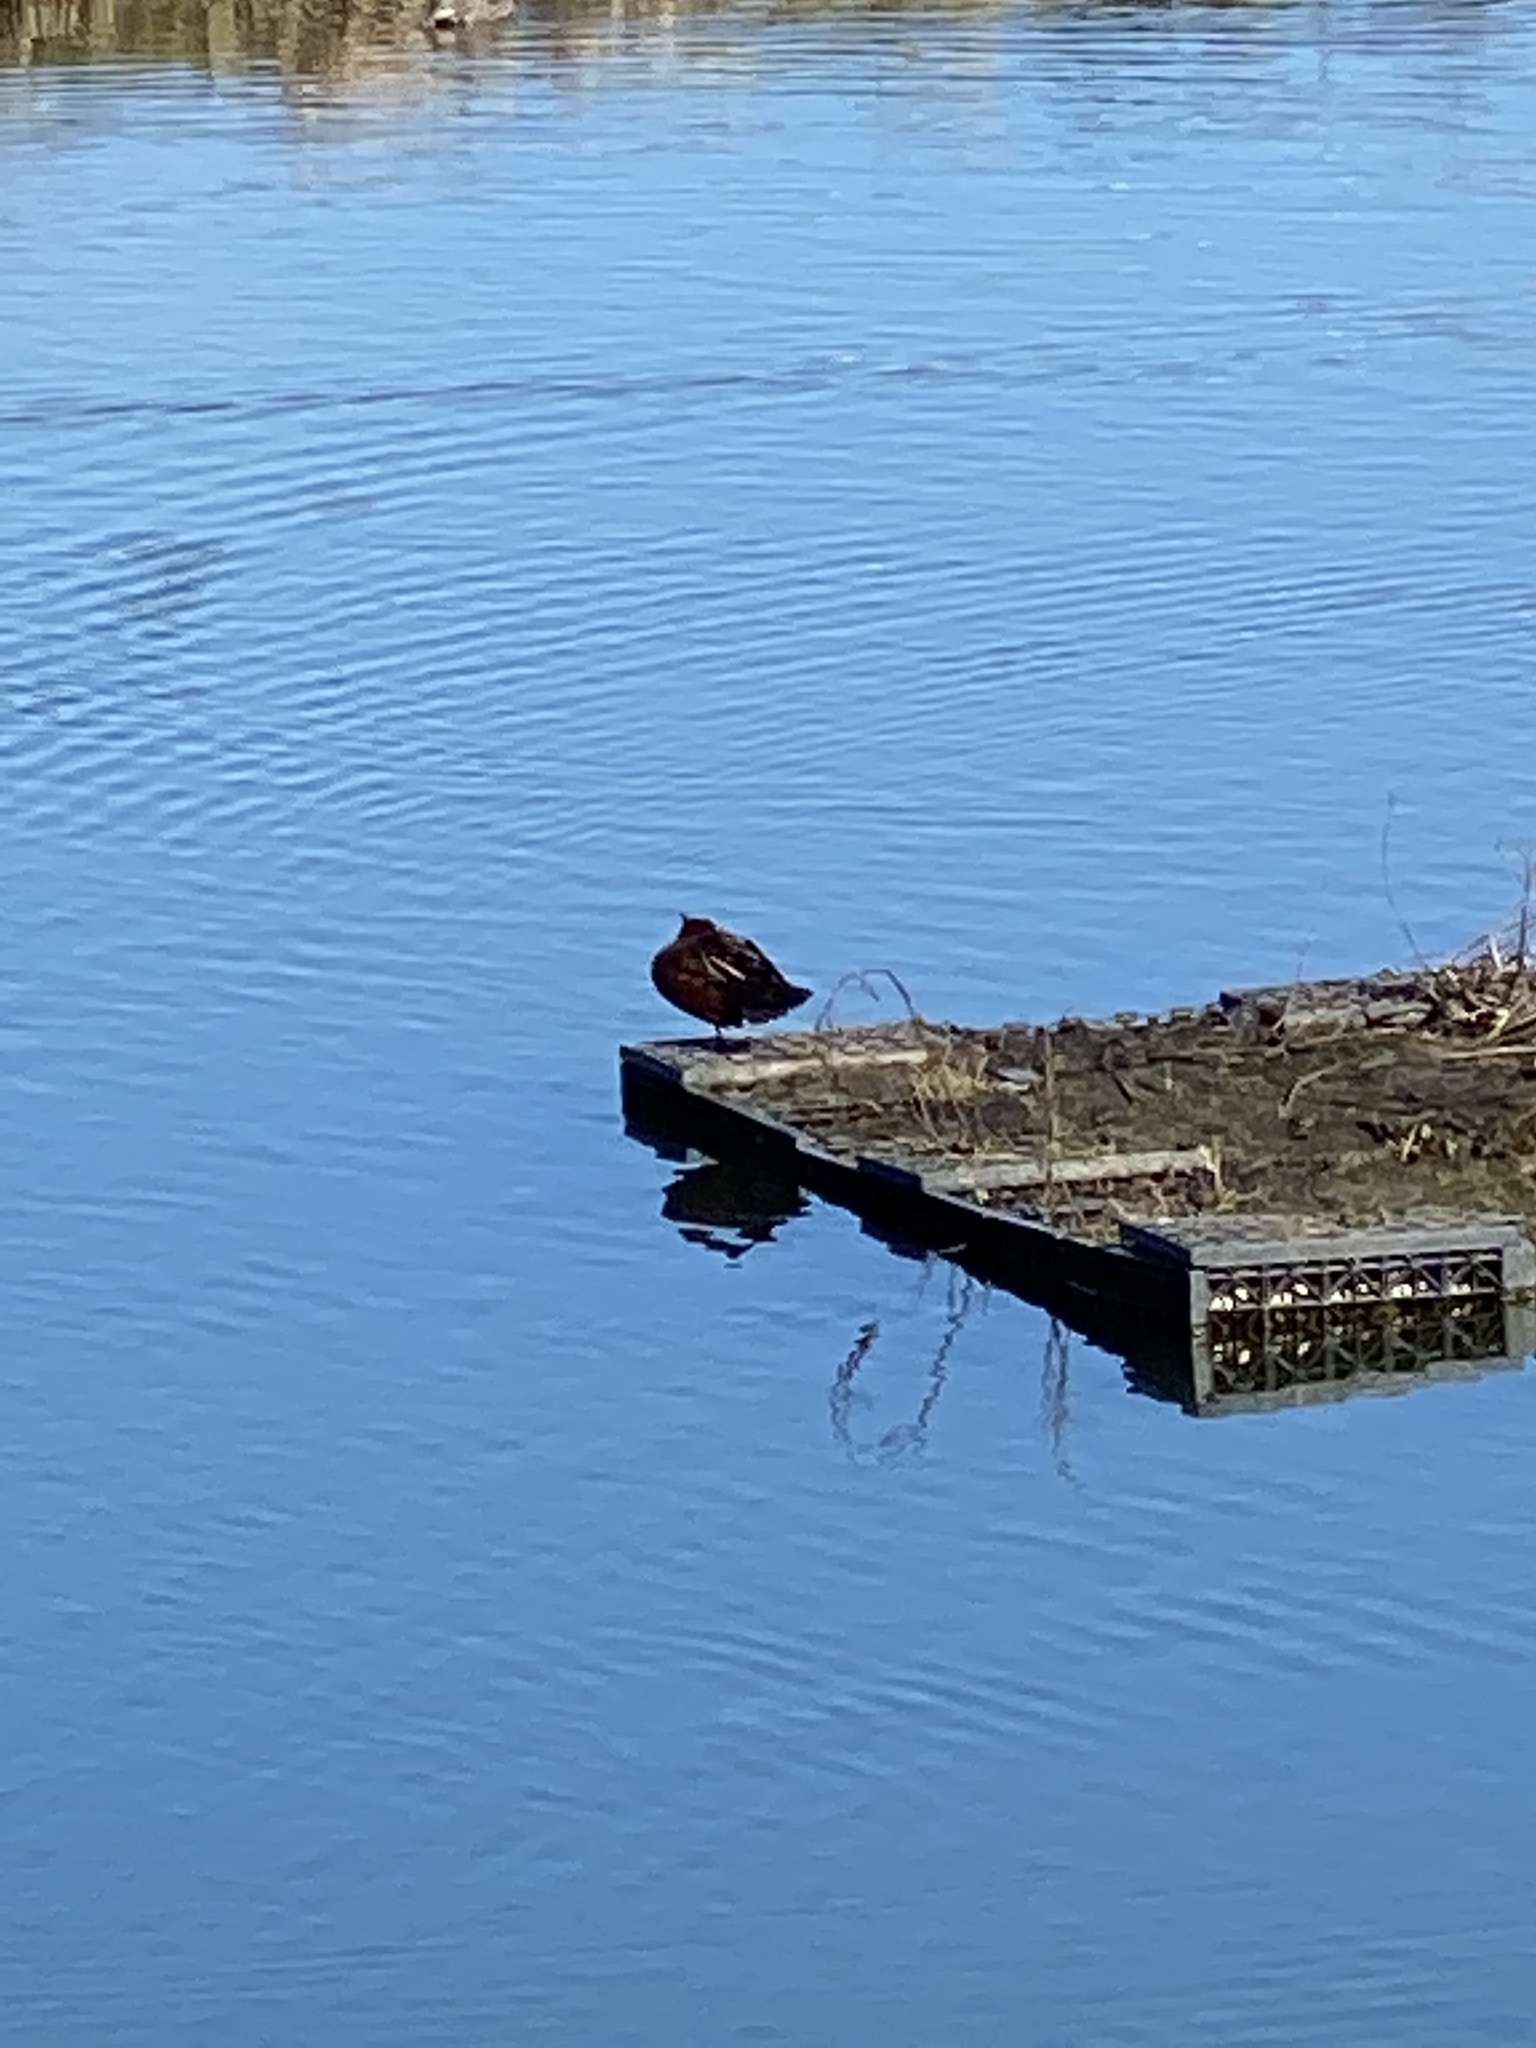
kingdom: Animalia
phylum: Chordata
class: Aves
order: Anseriformes
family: Anatidae
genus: Spatula
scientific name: Spatula cyanoptera
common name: Cinnamon teal
